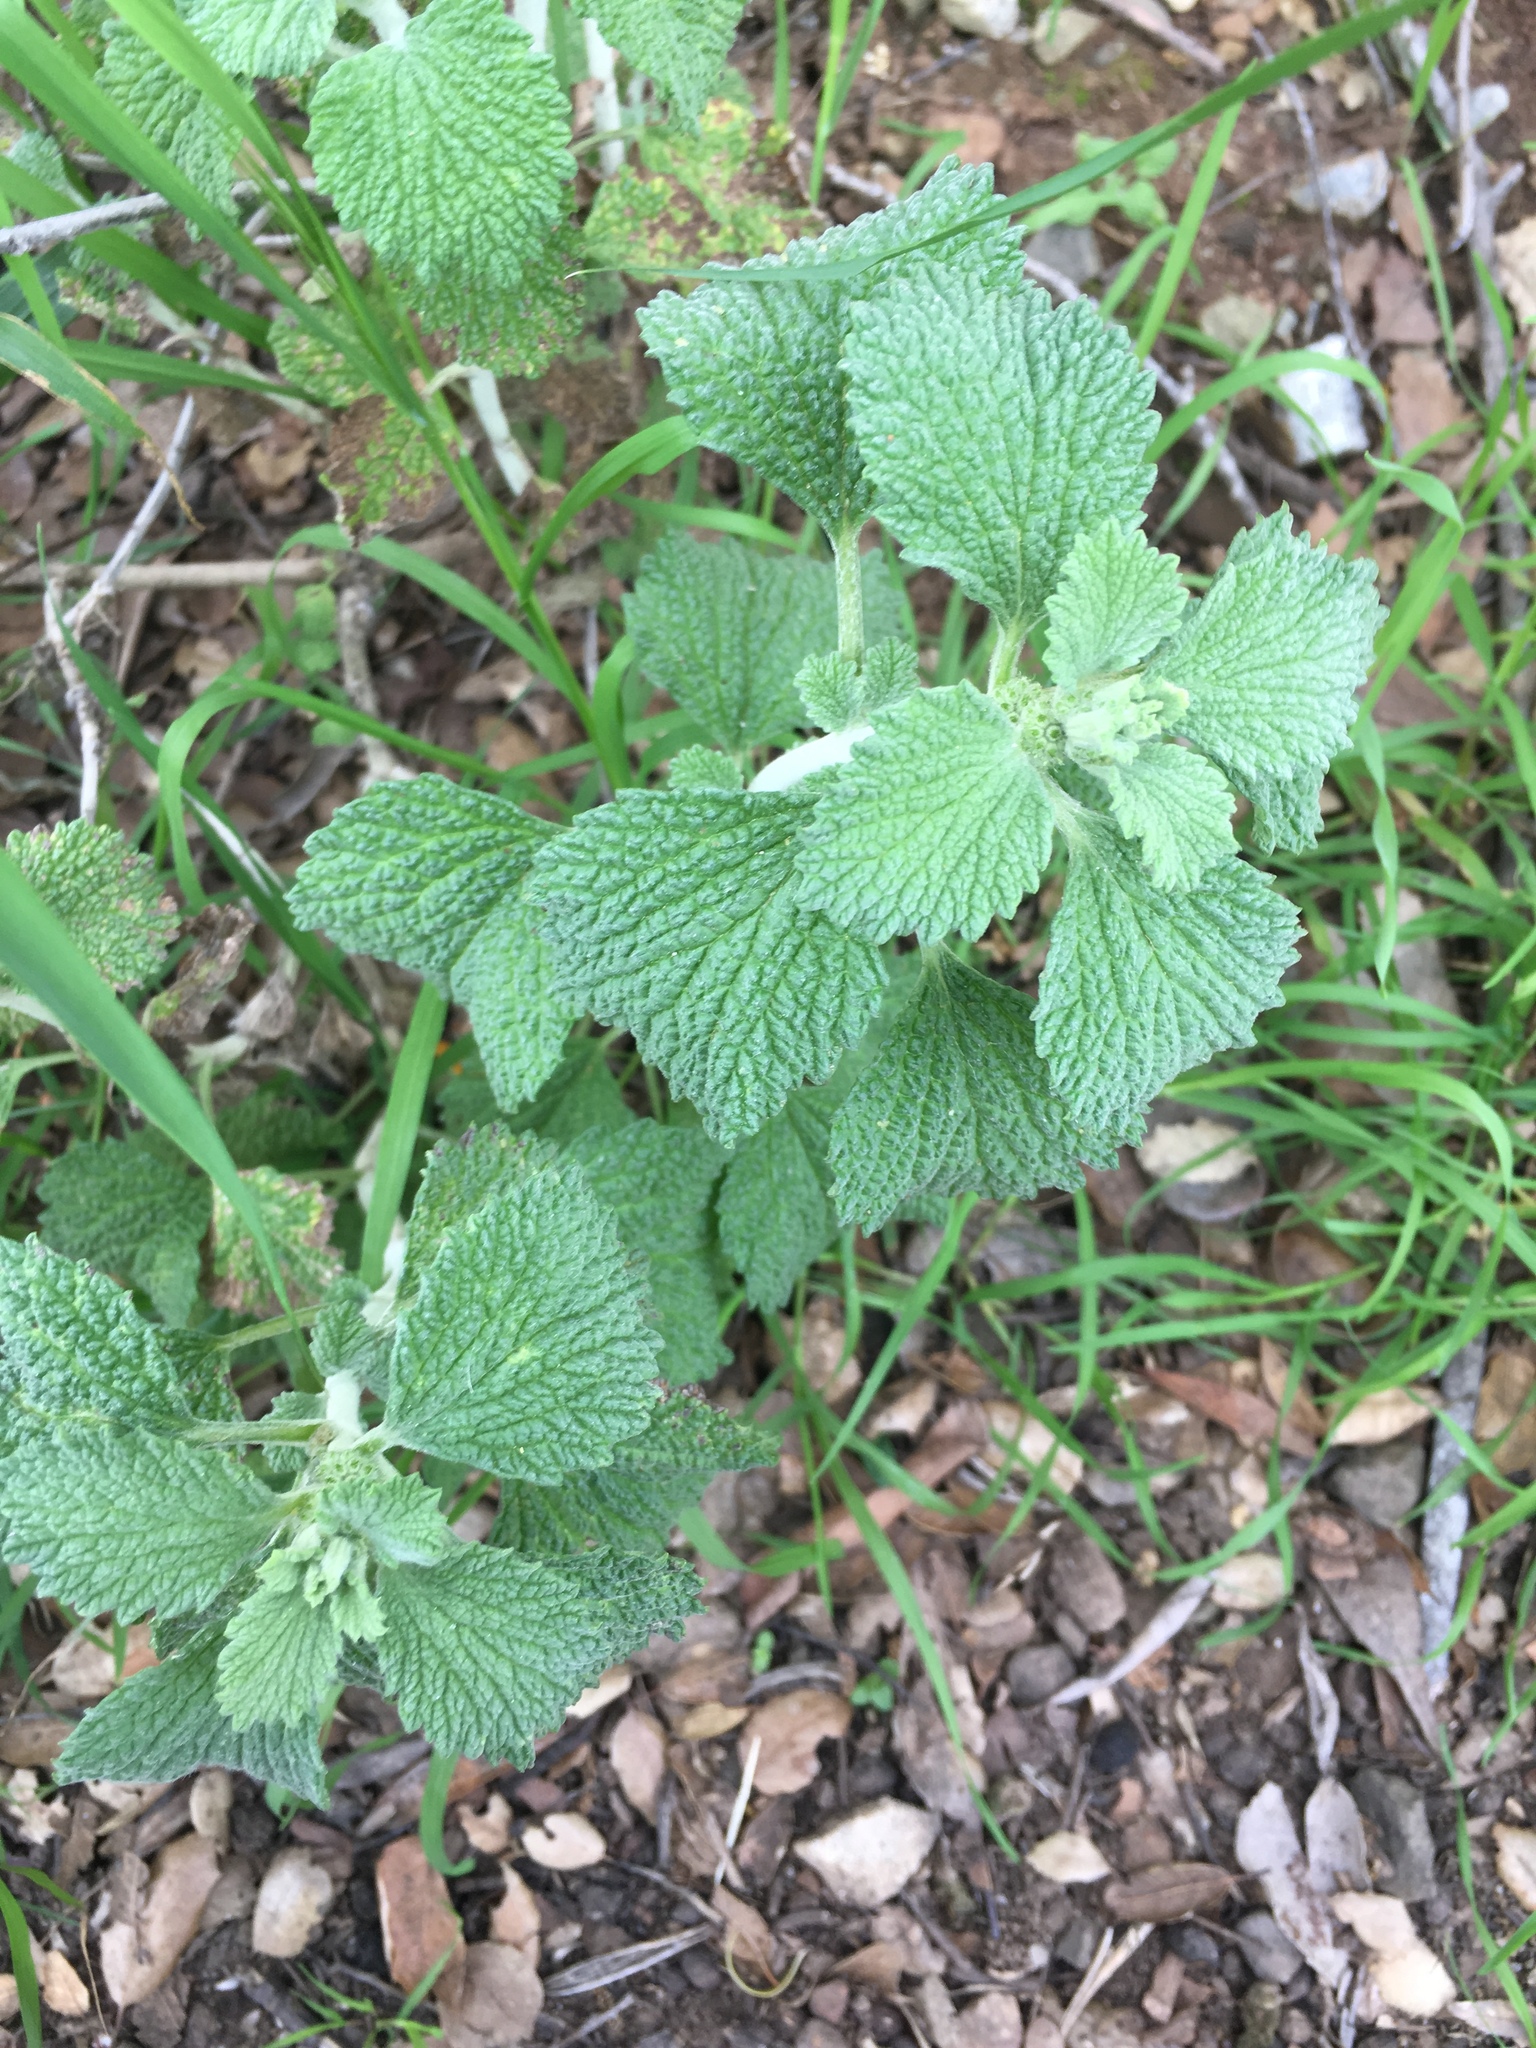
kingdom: Plantae
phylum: Tracheophyta
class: Magnoliopsida
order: Lamiales
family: Lamiaceae
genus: Marrubium
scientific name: Marrubium vulgare
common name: Horehound
